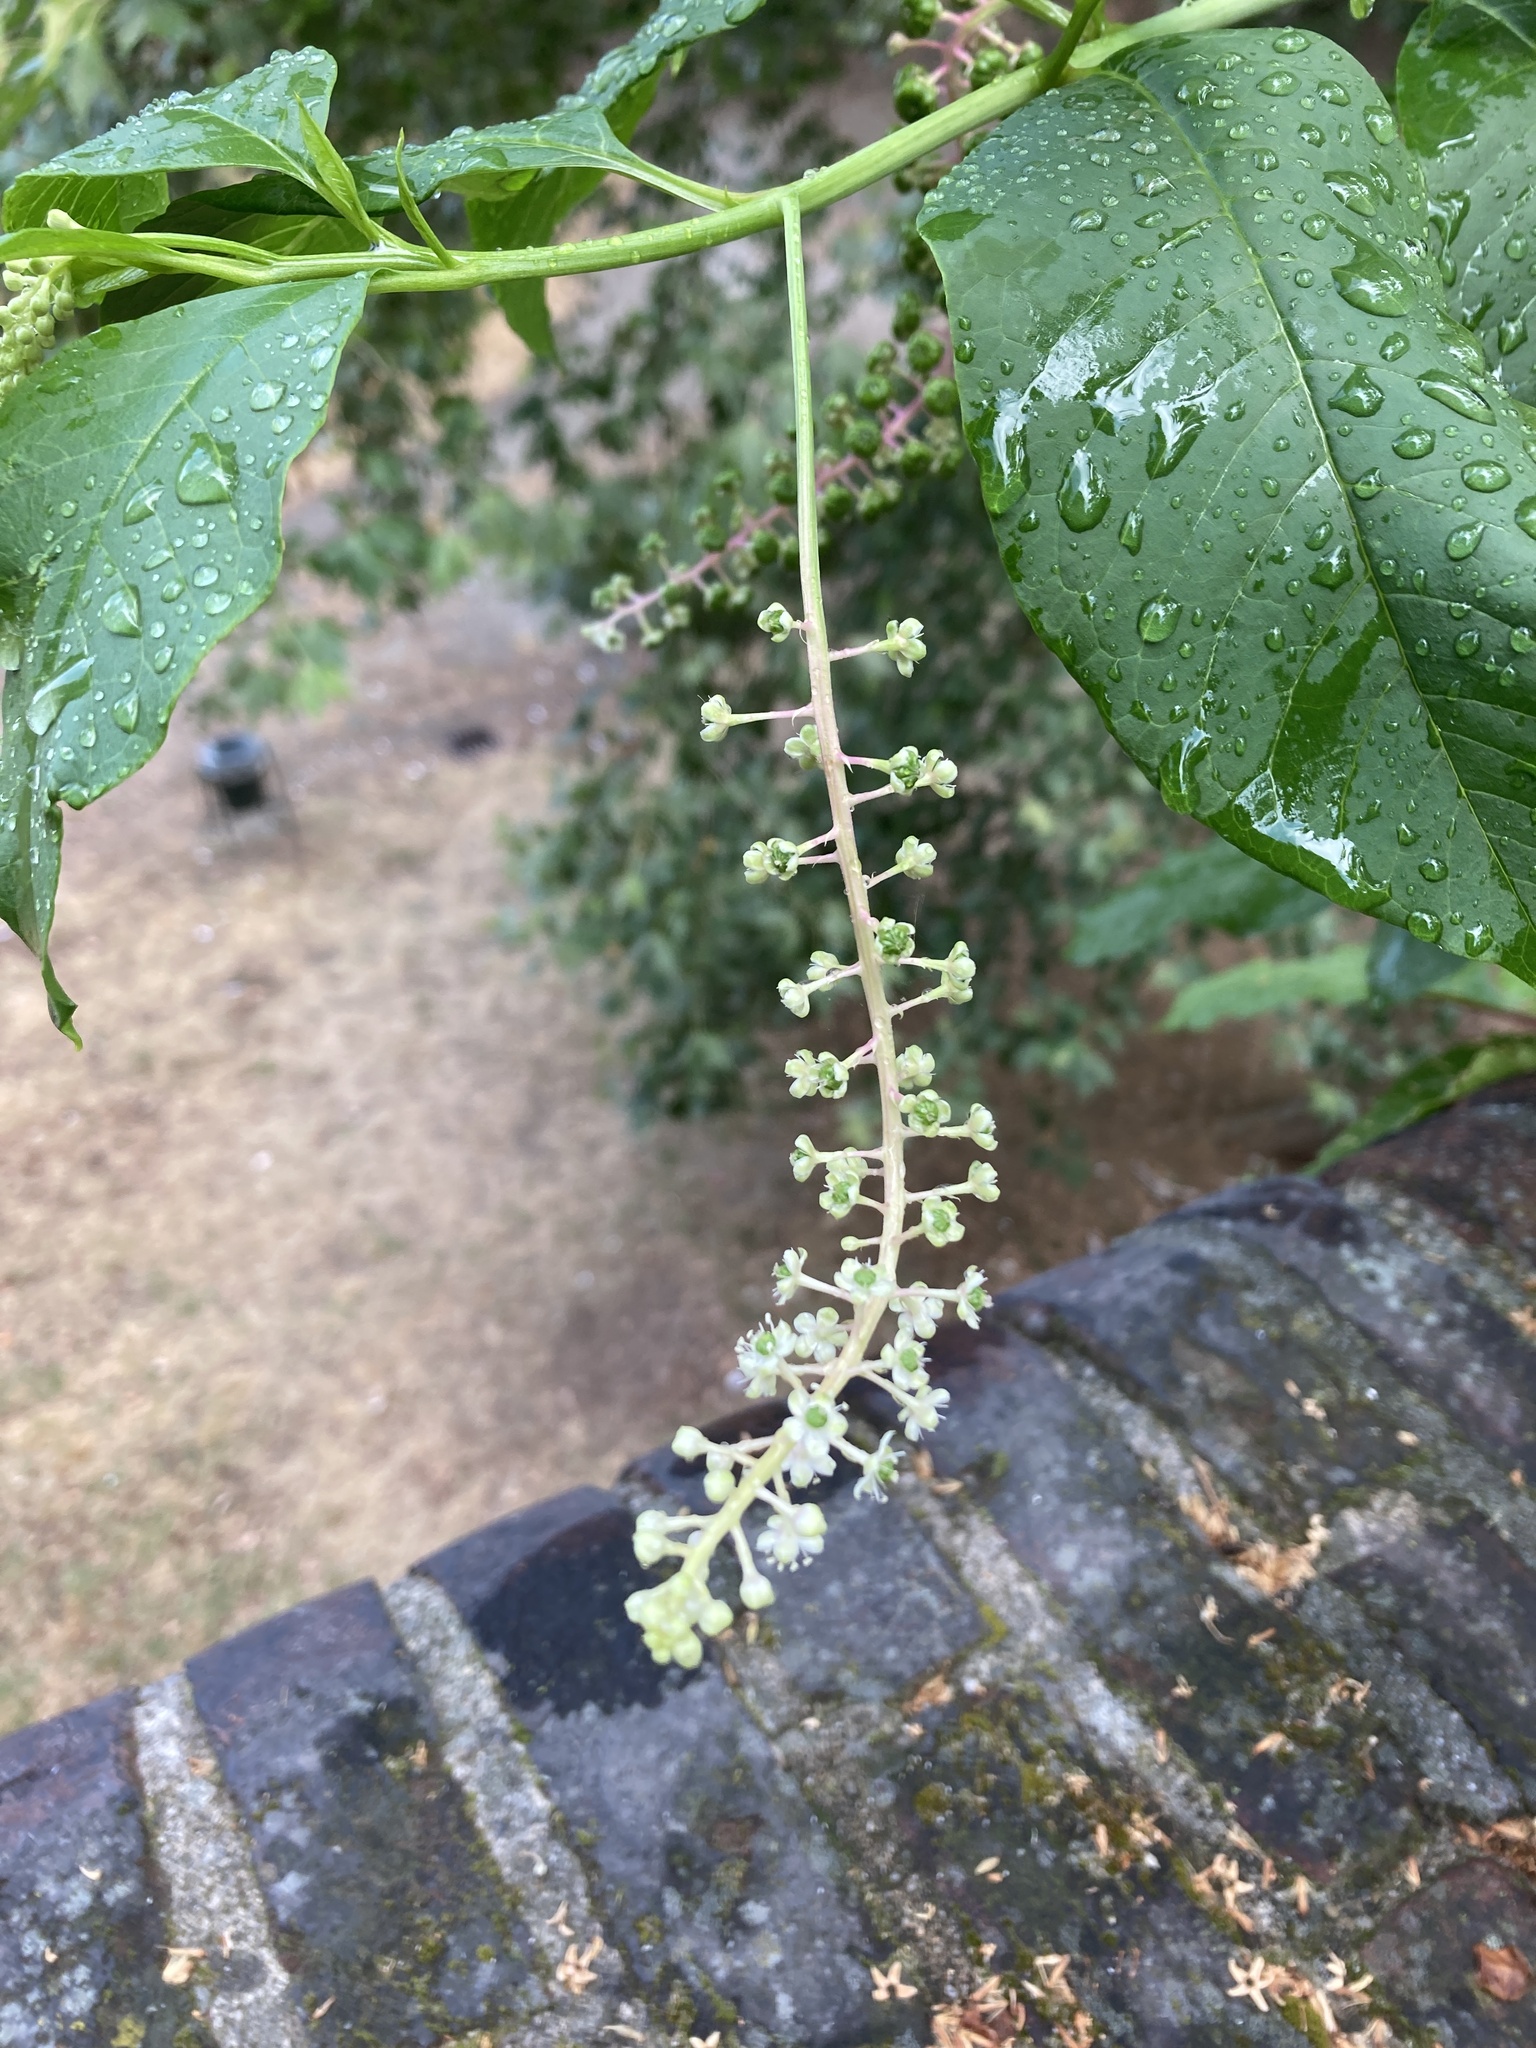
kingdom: Plantae
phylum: Tracheophyta
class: Magnoliopsida
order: Caryophyllales
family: Phytolaccaceae
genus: Phytolacca
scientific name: Phytolacca americana
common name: American pokeweed
